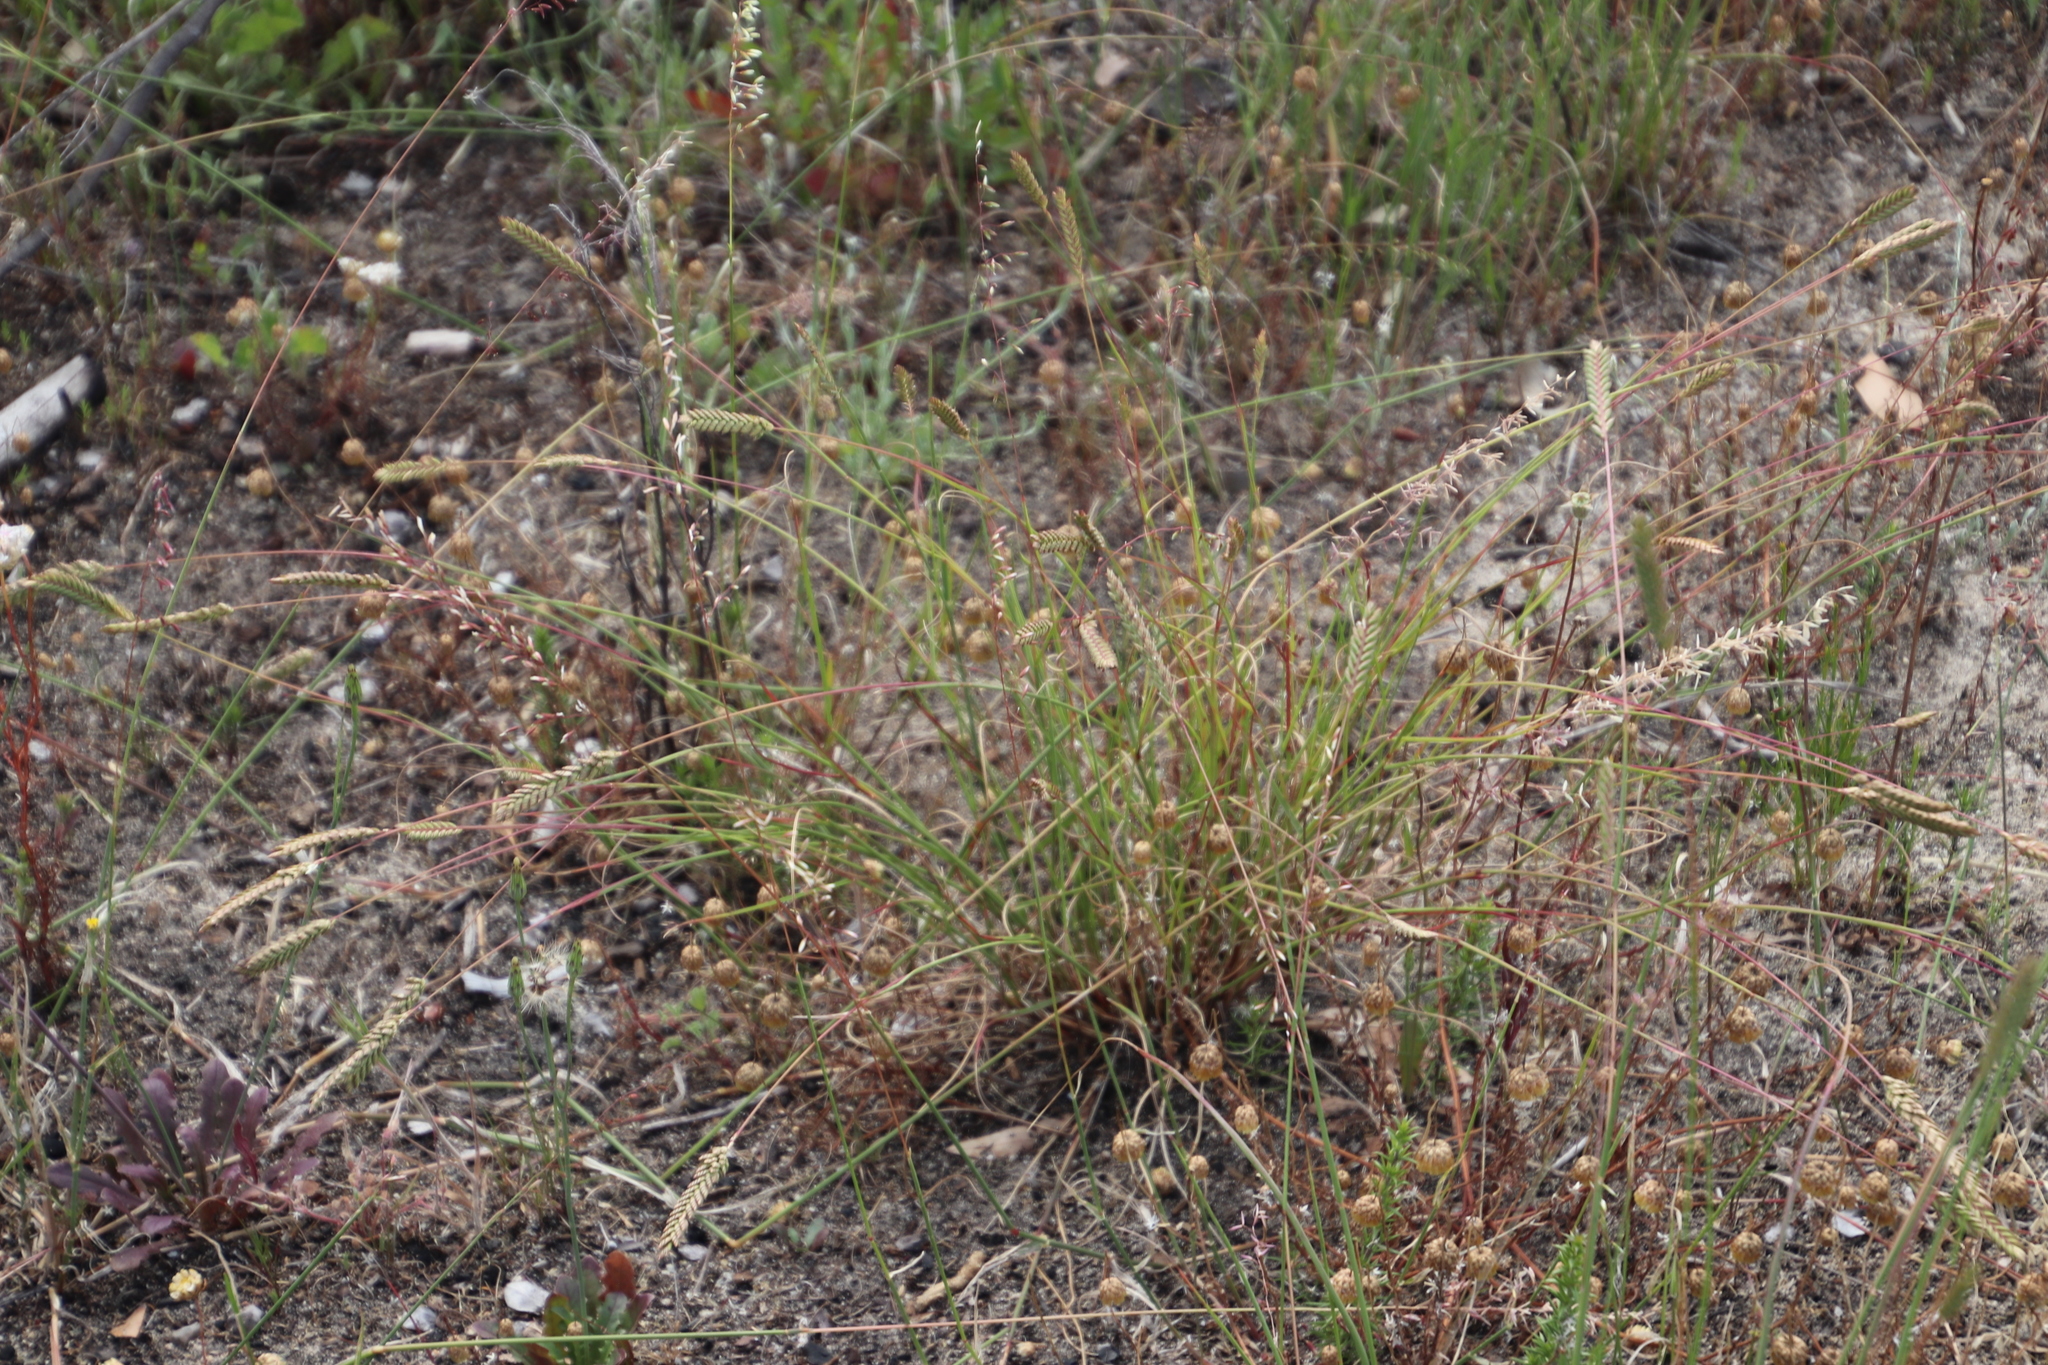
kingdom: Plantae
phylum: Tracheophyta
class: Liliopsida
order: Poales
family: Poaceae
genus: Tribolium
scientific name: Tribolium uniolae
